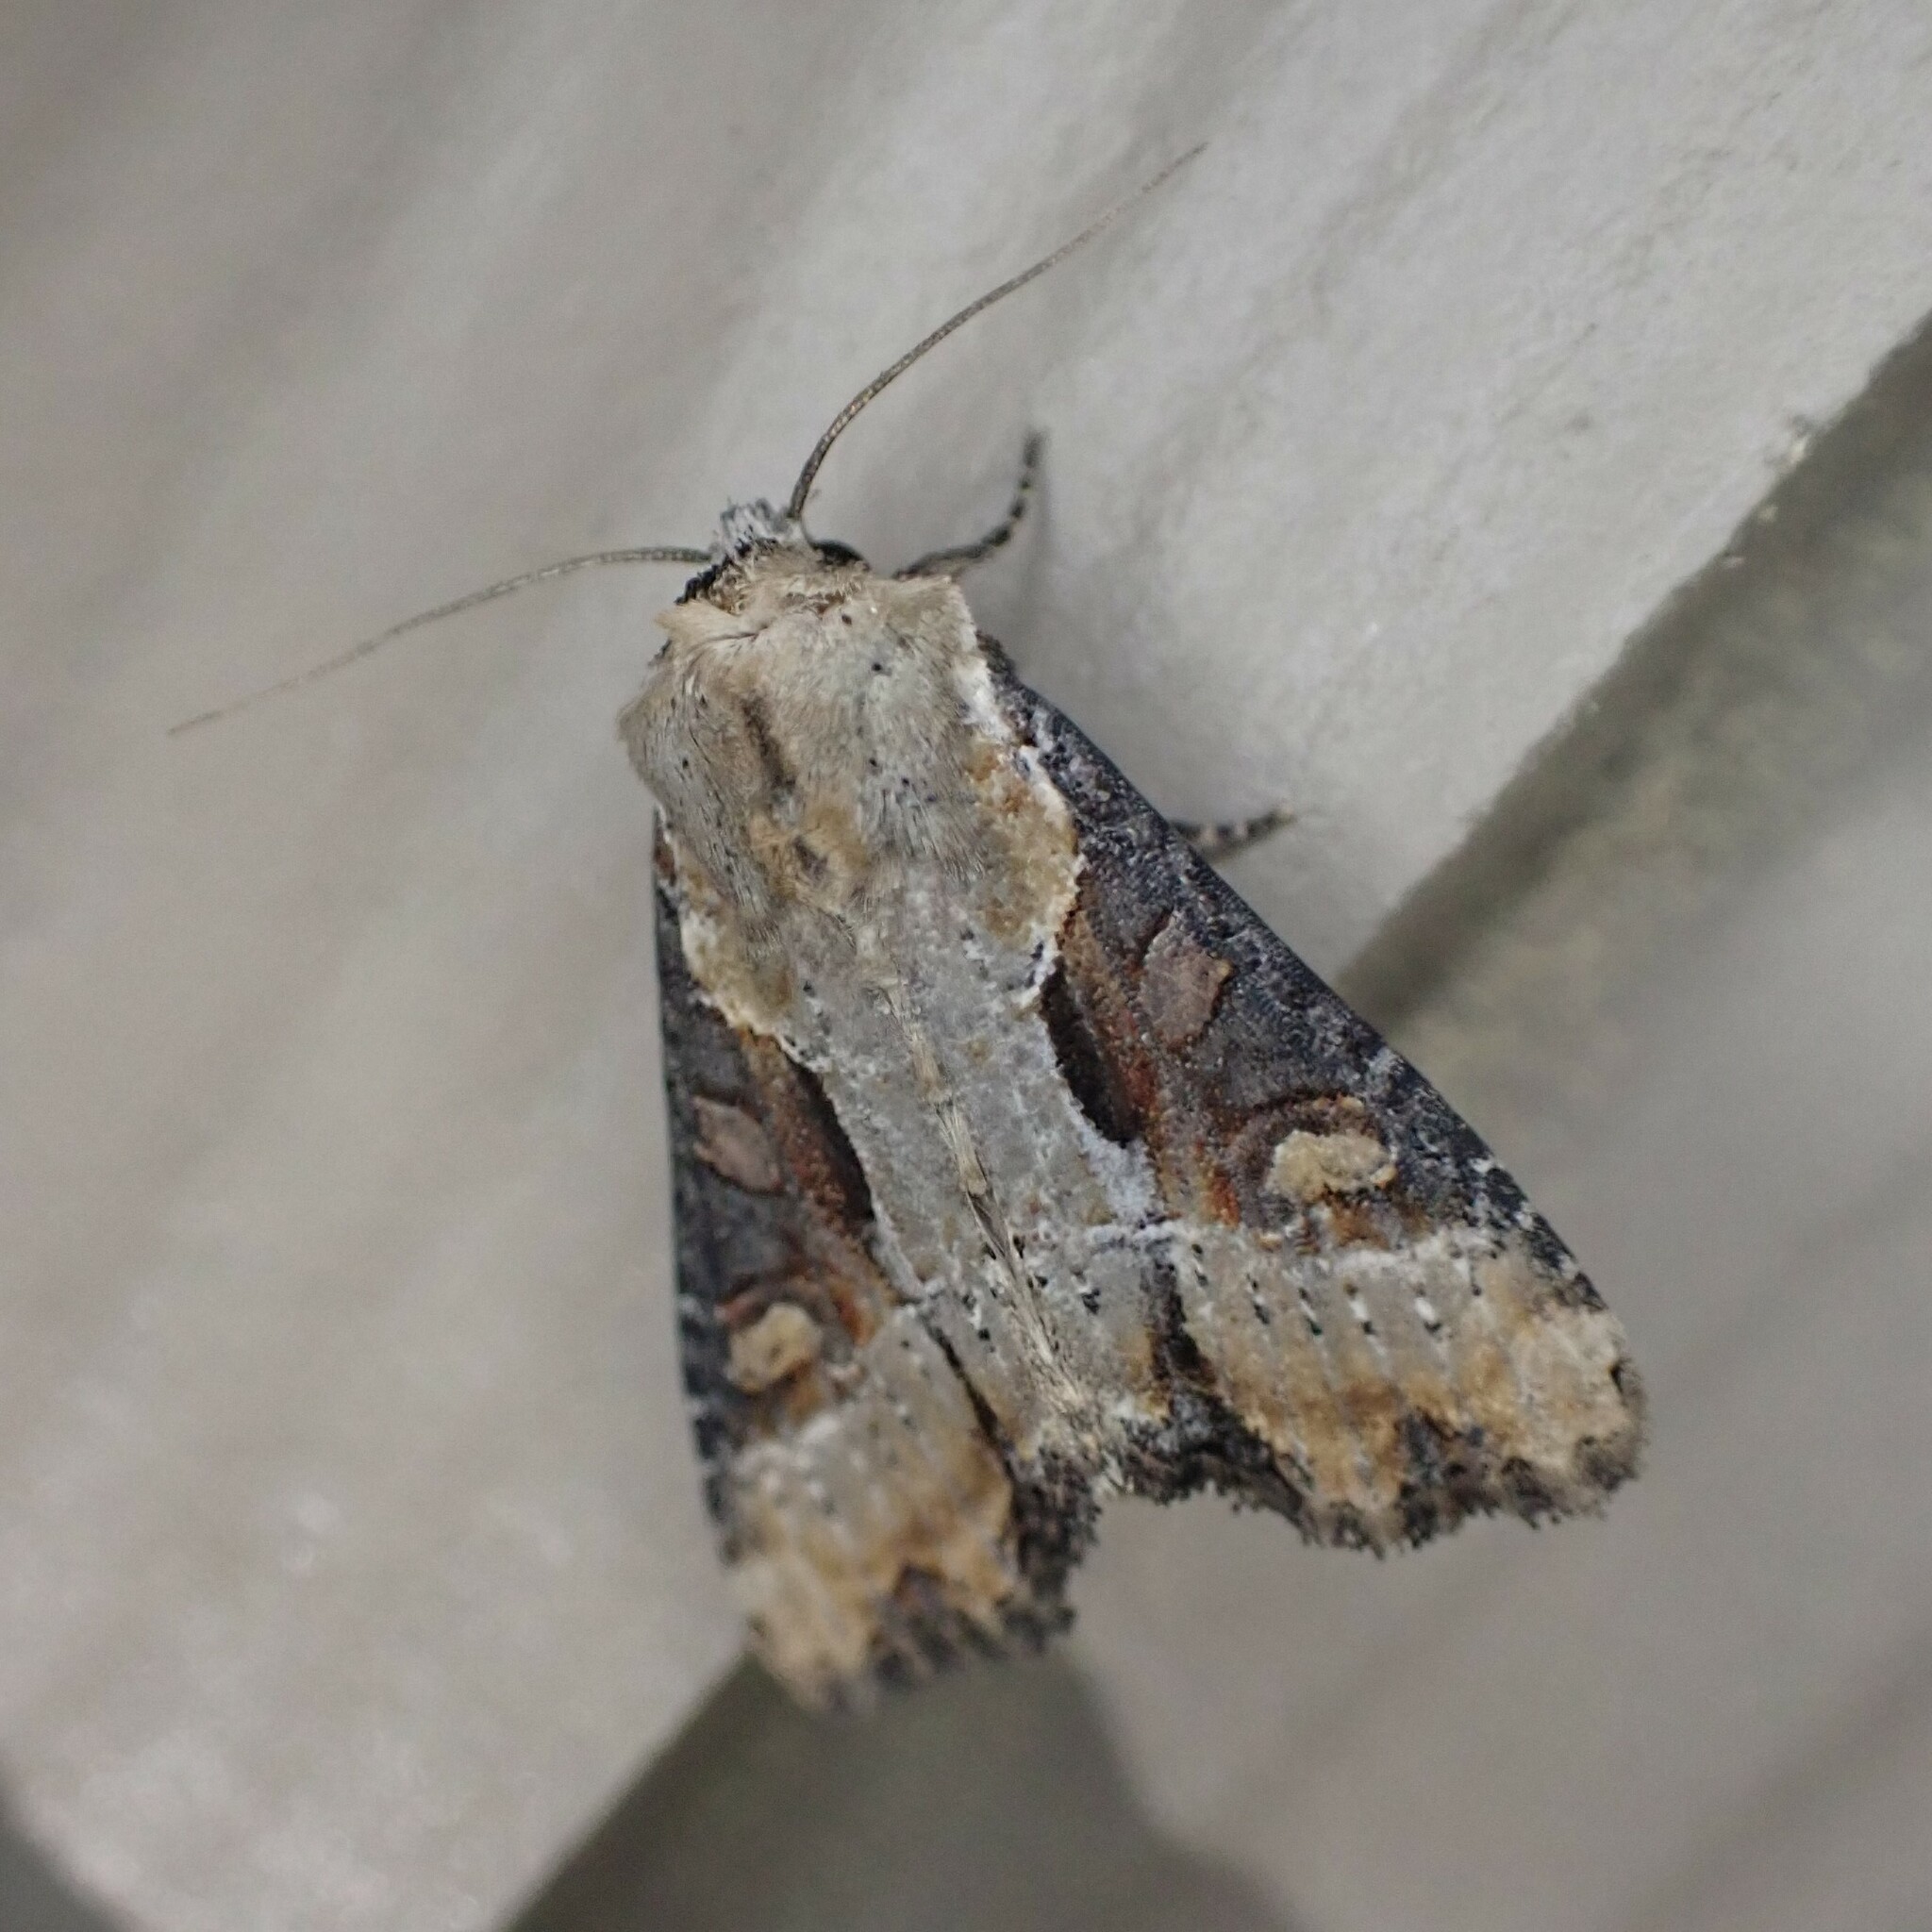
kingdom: Animalia
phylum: Arthropoda
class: Insecta
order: Lepidoptera
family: Noctuidae
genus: Lateroligia
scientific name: Lateroligia ophiogramma
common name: Double lobed
